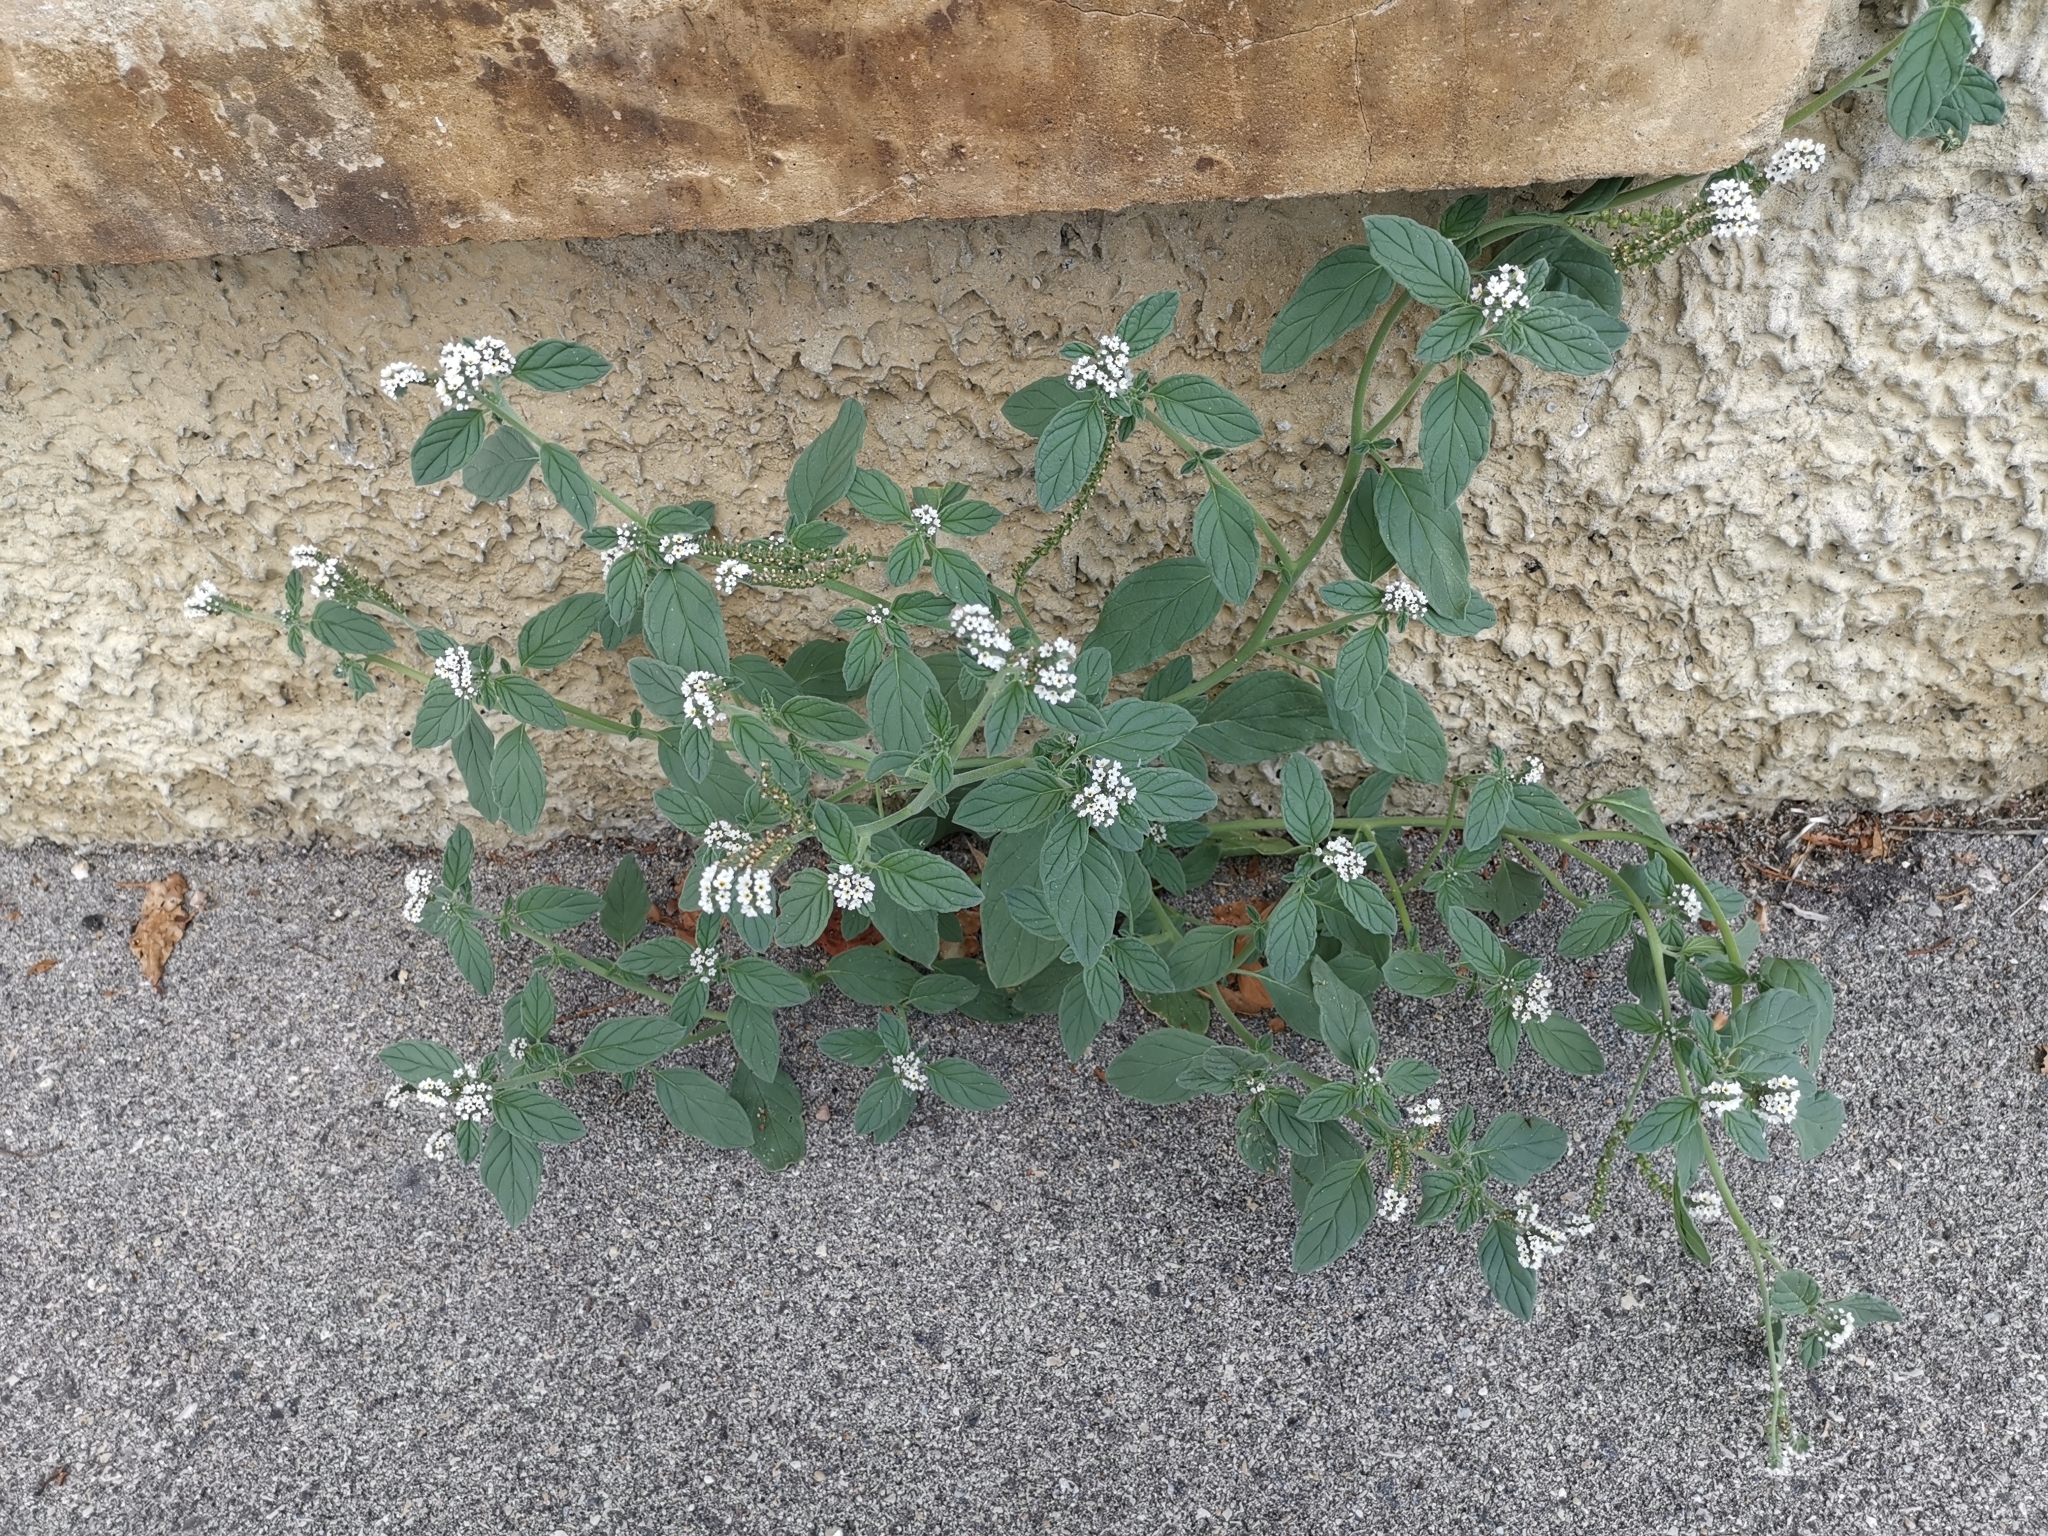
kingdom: Plantae
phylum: Tracheophyta
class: Magnoliopsida
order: Boraginales
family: Heliotropiaceae
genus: Heliotropium
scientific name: Heliotropium europaeum
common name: European heliotrope
